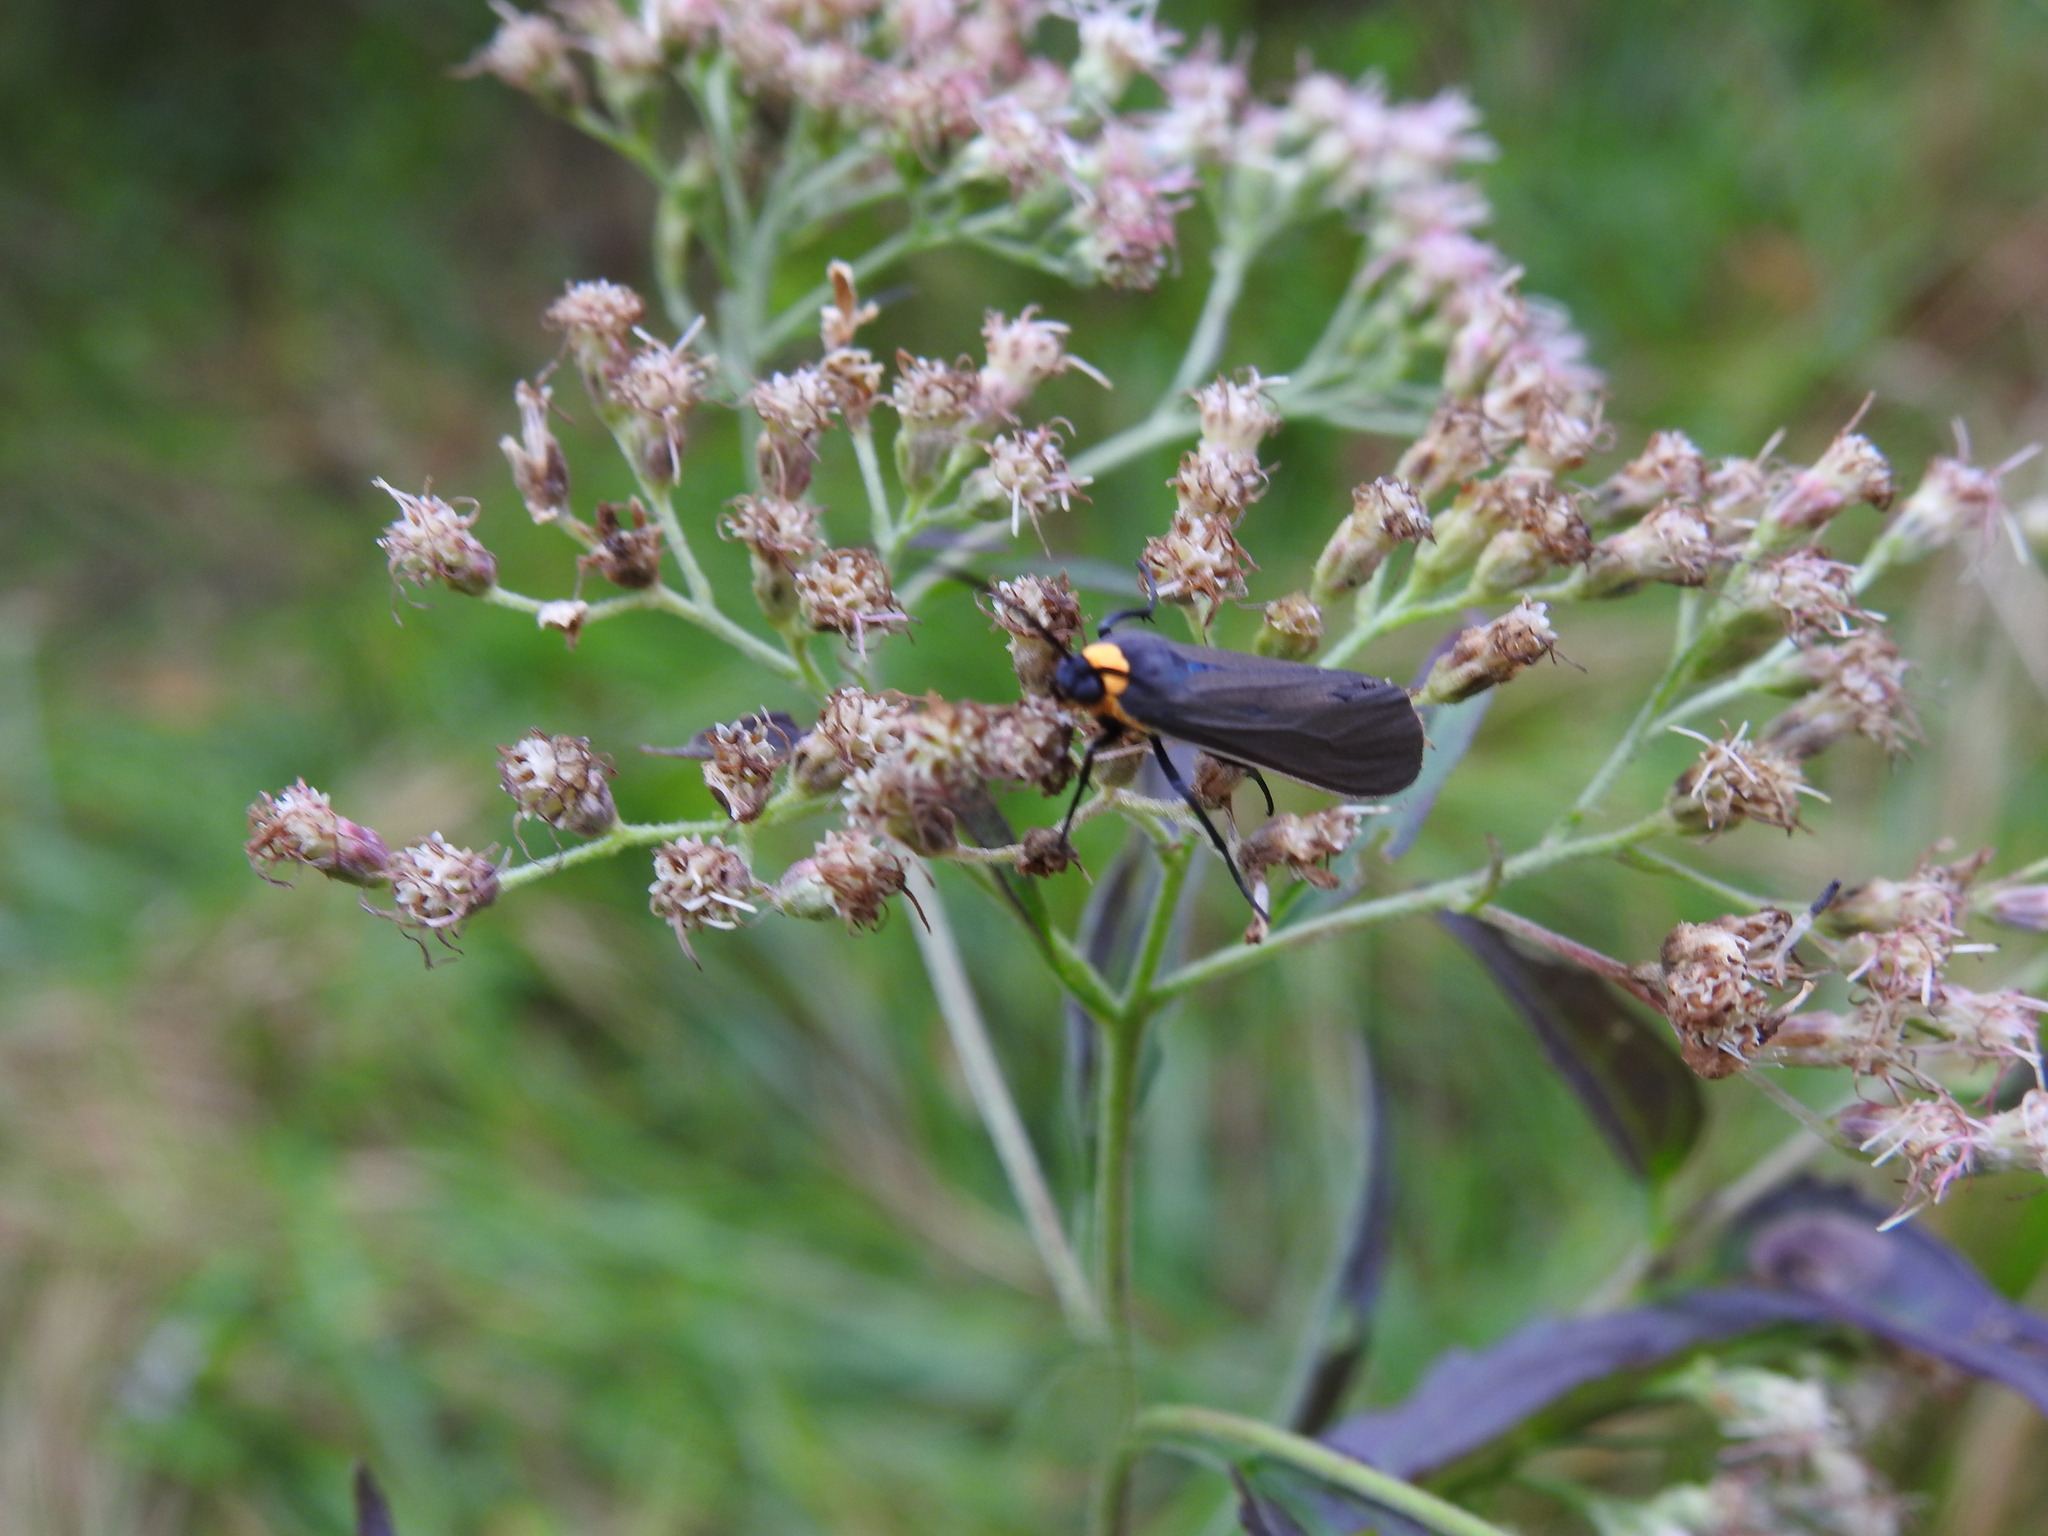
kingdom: Animalia
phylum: Arthropoda
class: Insecta
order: Lepidoptera
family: Erebidae
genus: Cisseps
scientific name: Cisseps fulvicollis
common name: Yellow-collared scape moth
